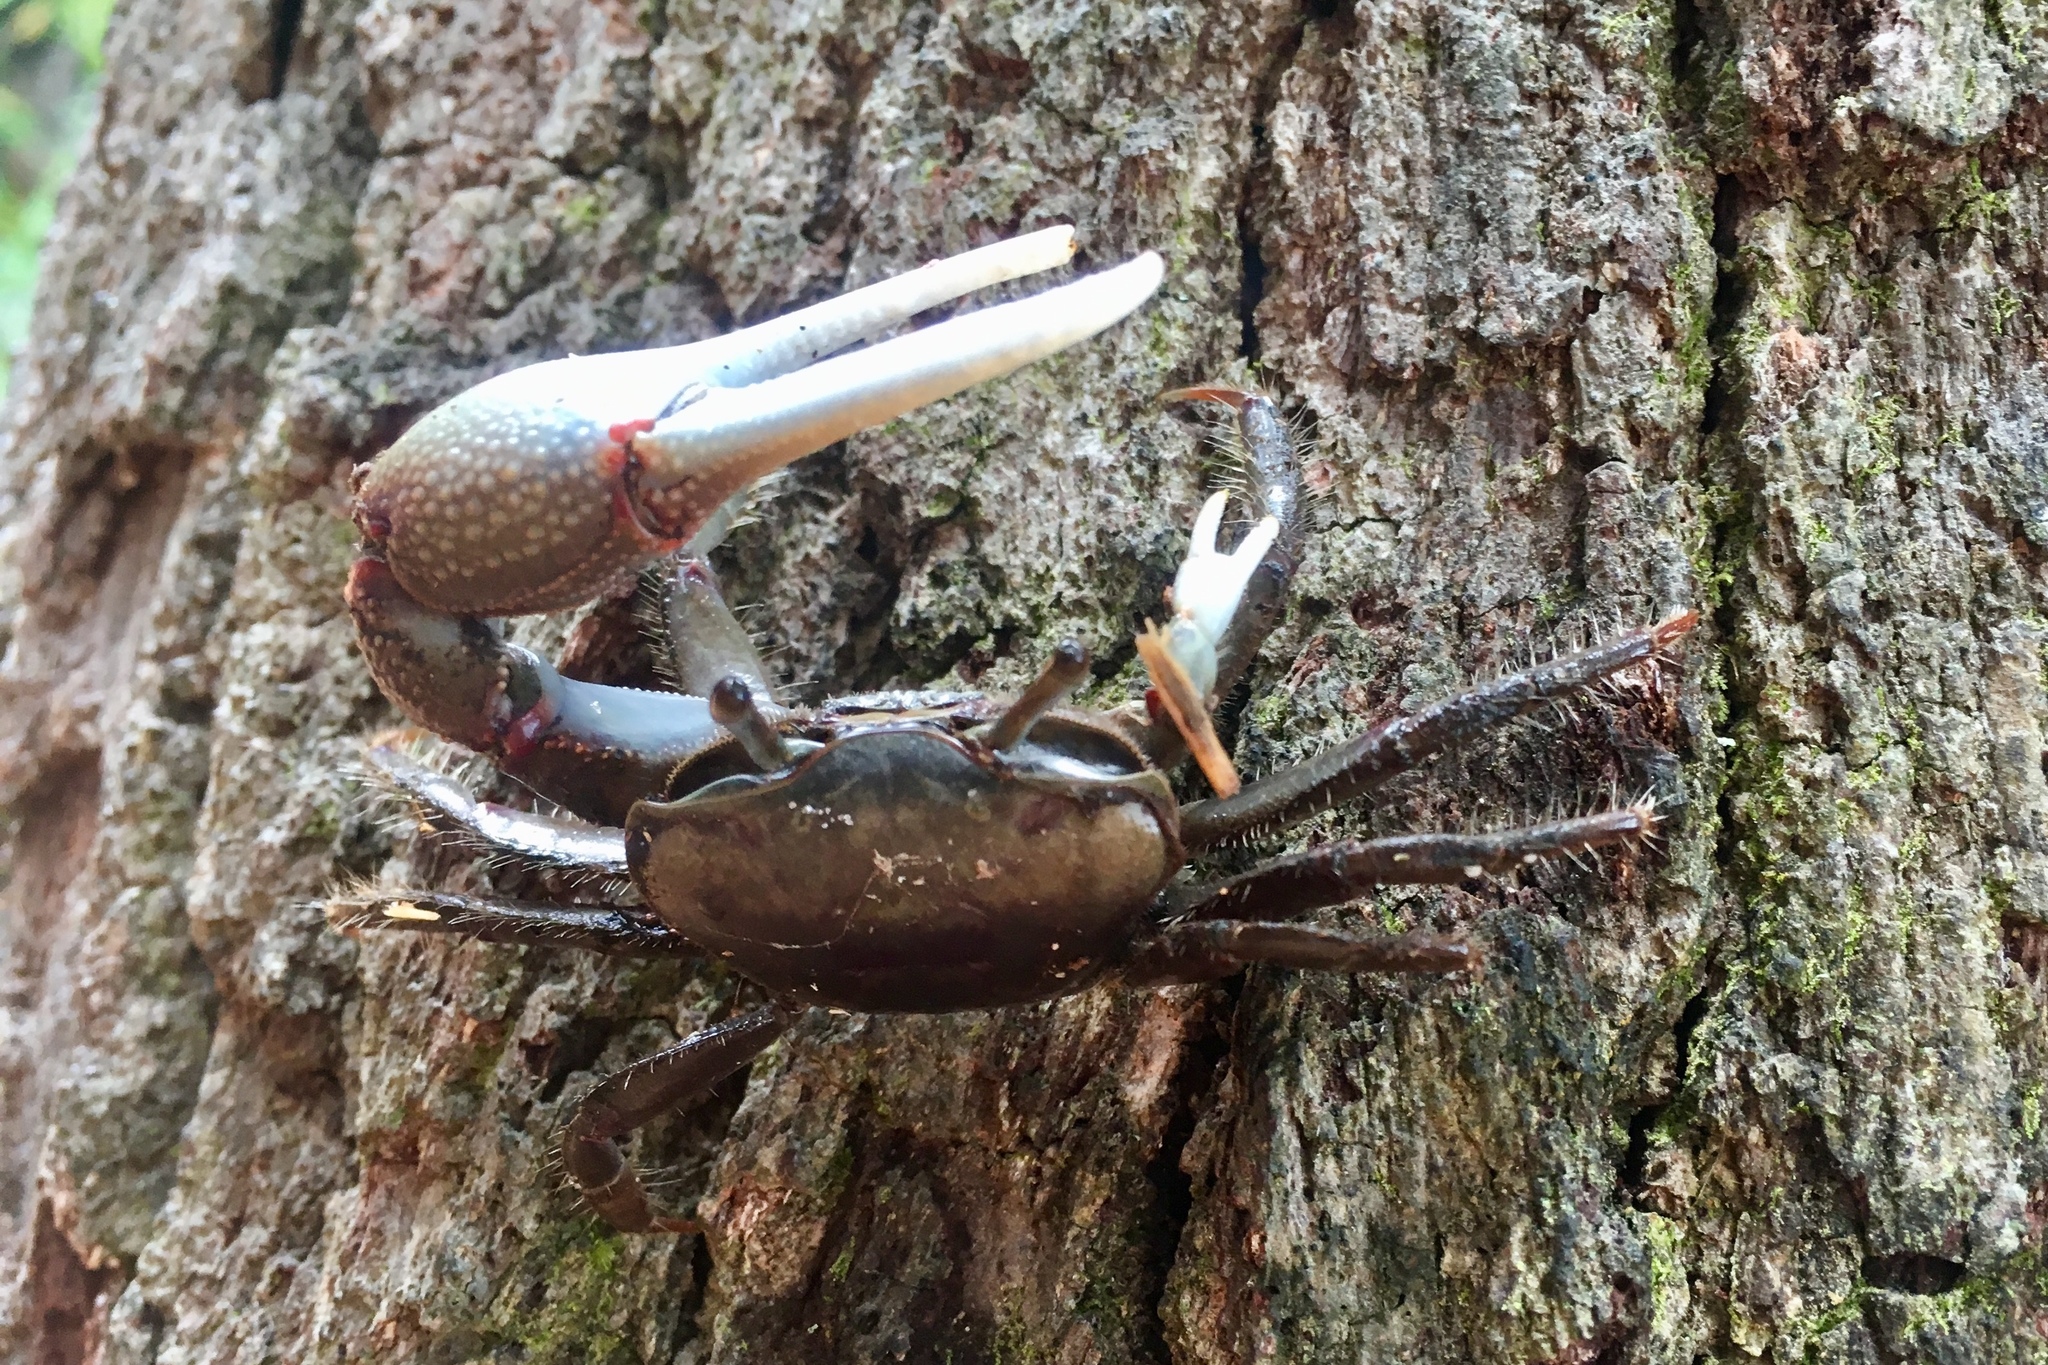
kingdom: Animalia
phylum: Arthropoda
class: Malacostraca
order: Decapoda
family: Ocypodidae
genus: Minuca
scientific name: Minuca minax
